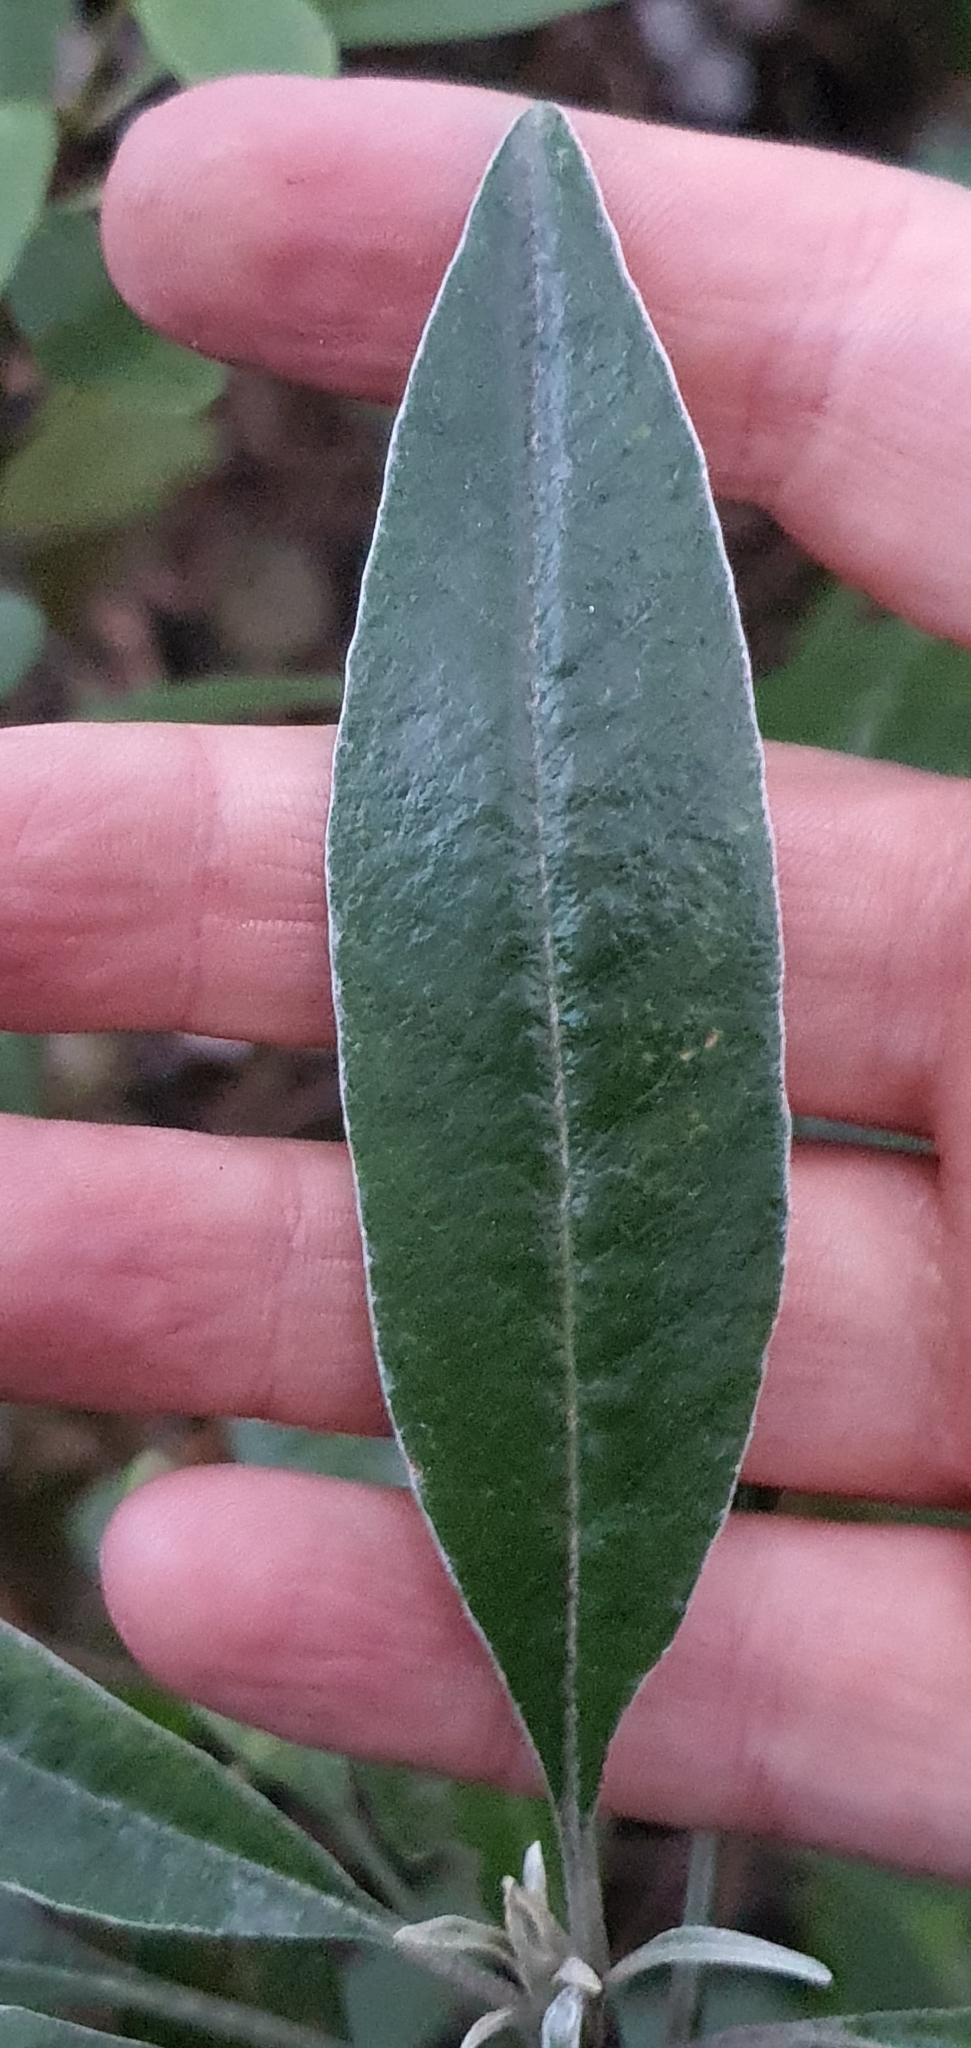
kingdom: Plantae
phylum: Tracheophyta
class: Magnoliopsida
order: Asterales
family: Asteraceae
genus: Brachyglottis
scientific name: Brachyglottis laxifolia
